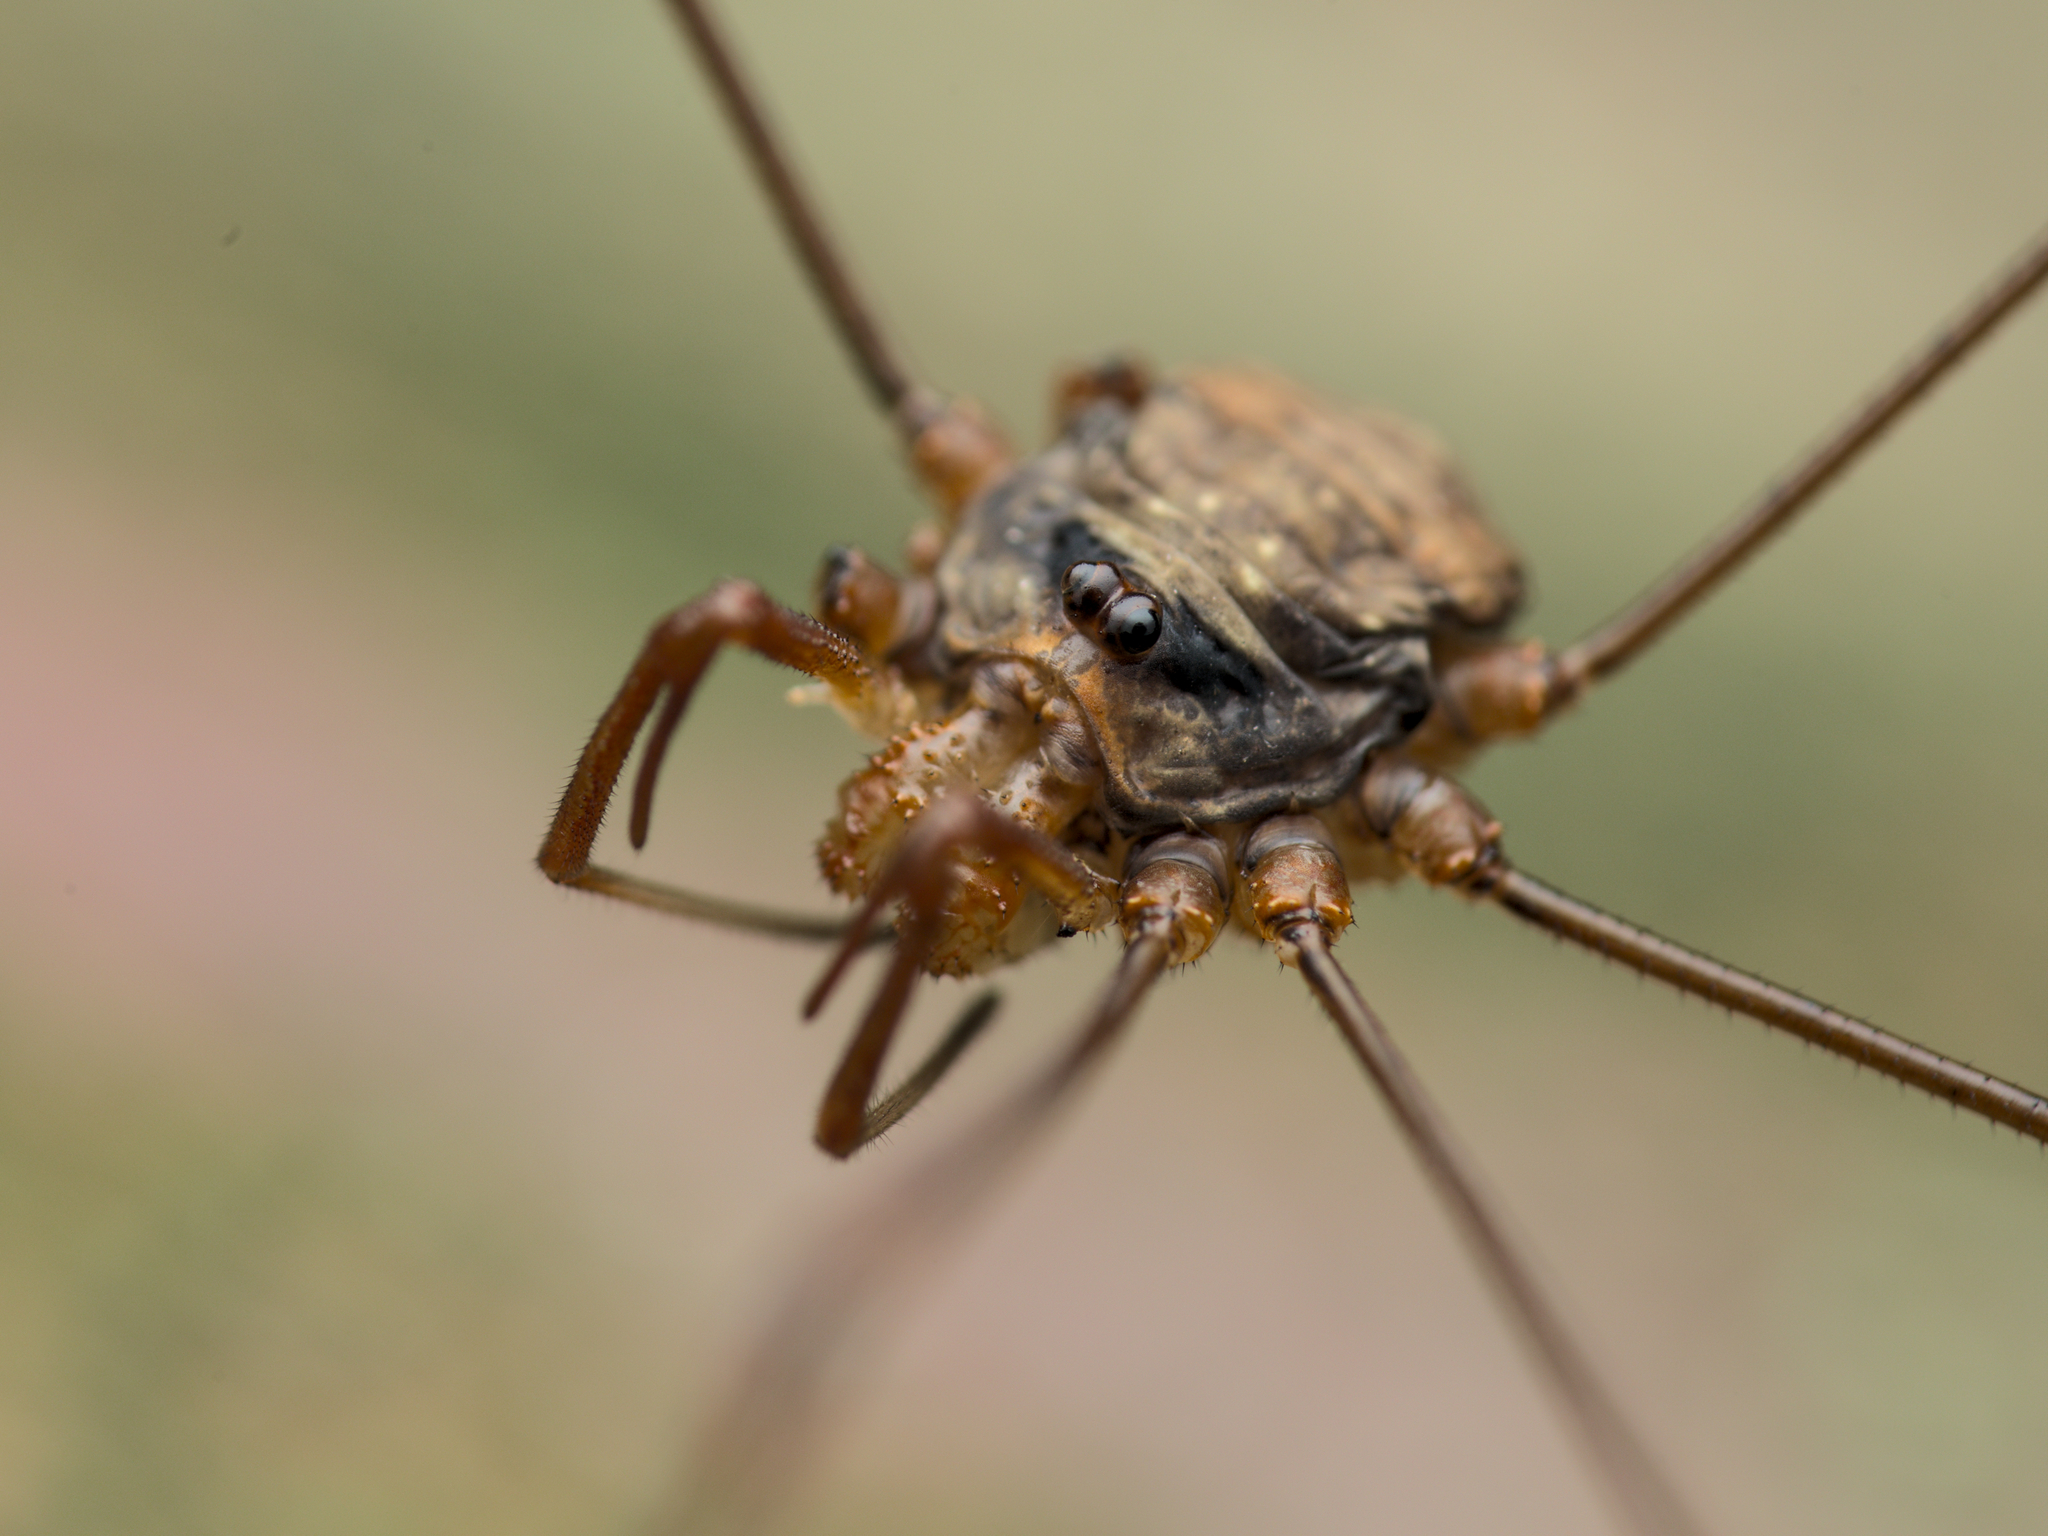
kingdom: Animalia
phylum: Arthropoda
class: Arachnida
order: Opiliones
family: Phalangiidae
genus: Dicranopalpus
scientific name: Dicranopalpus ramosus
